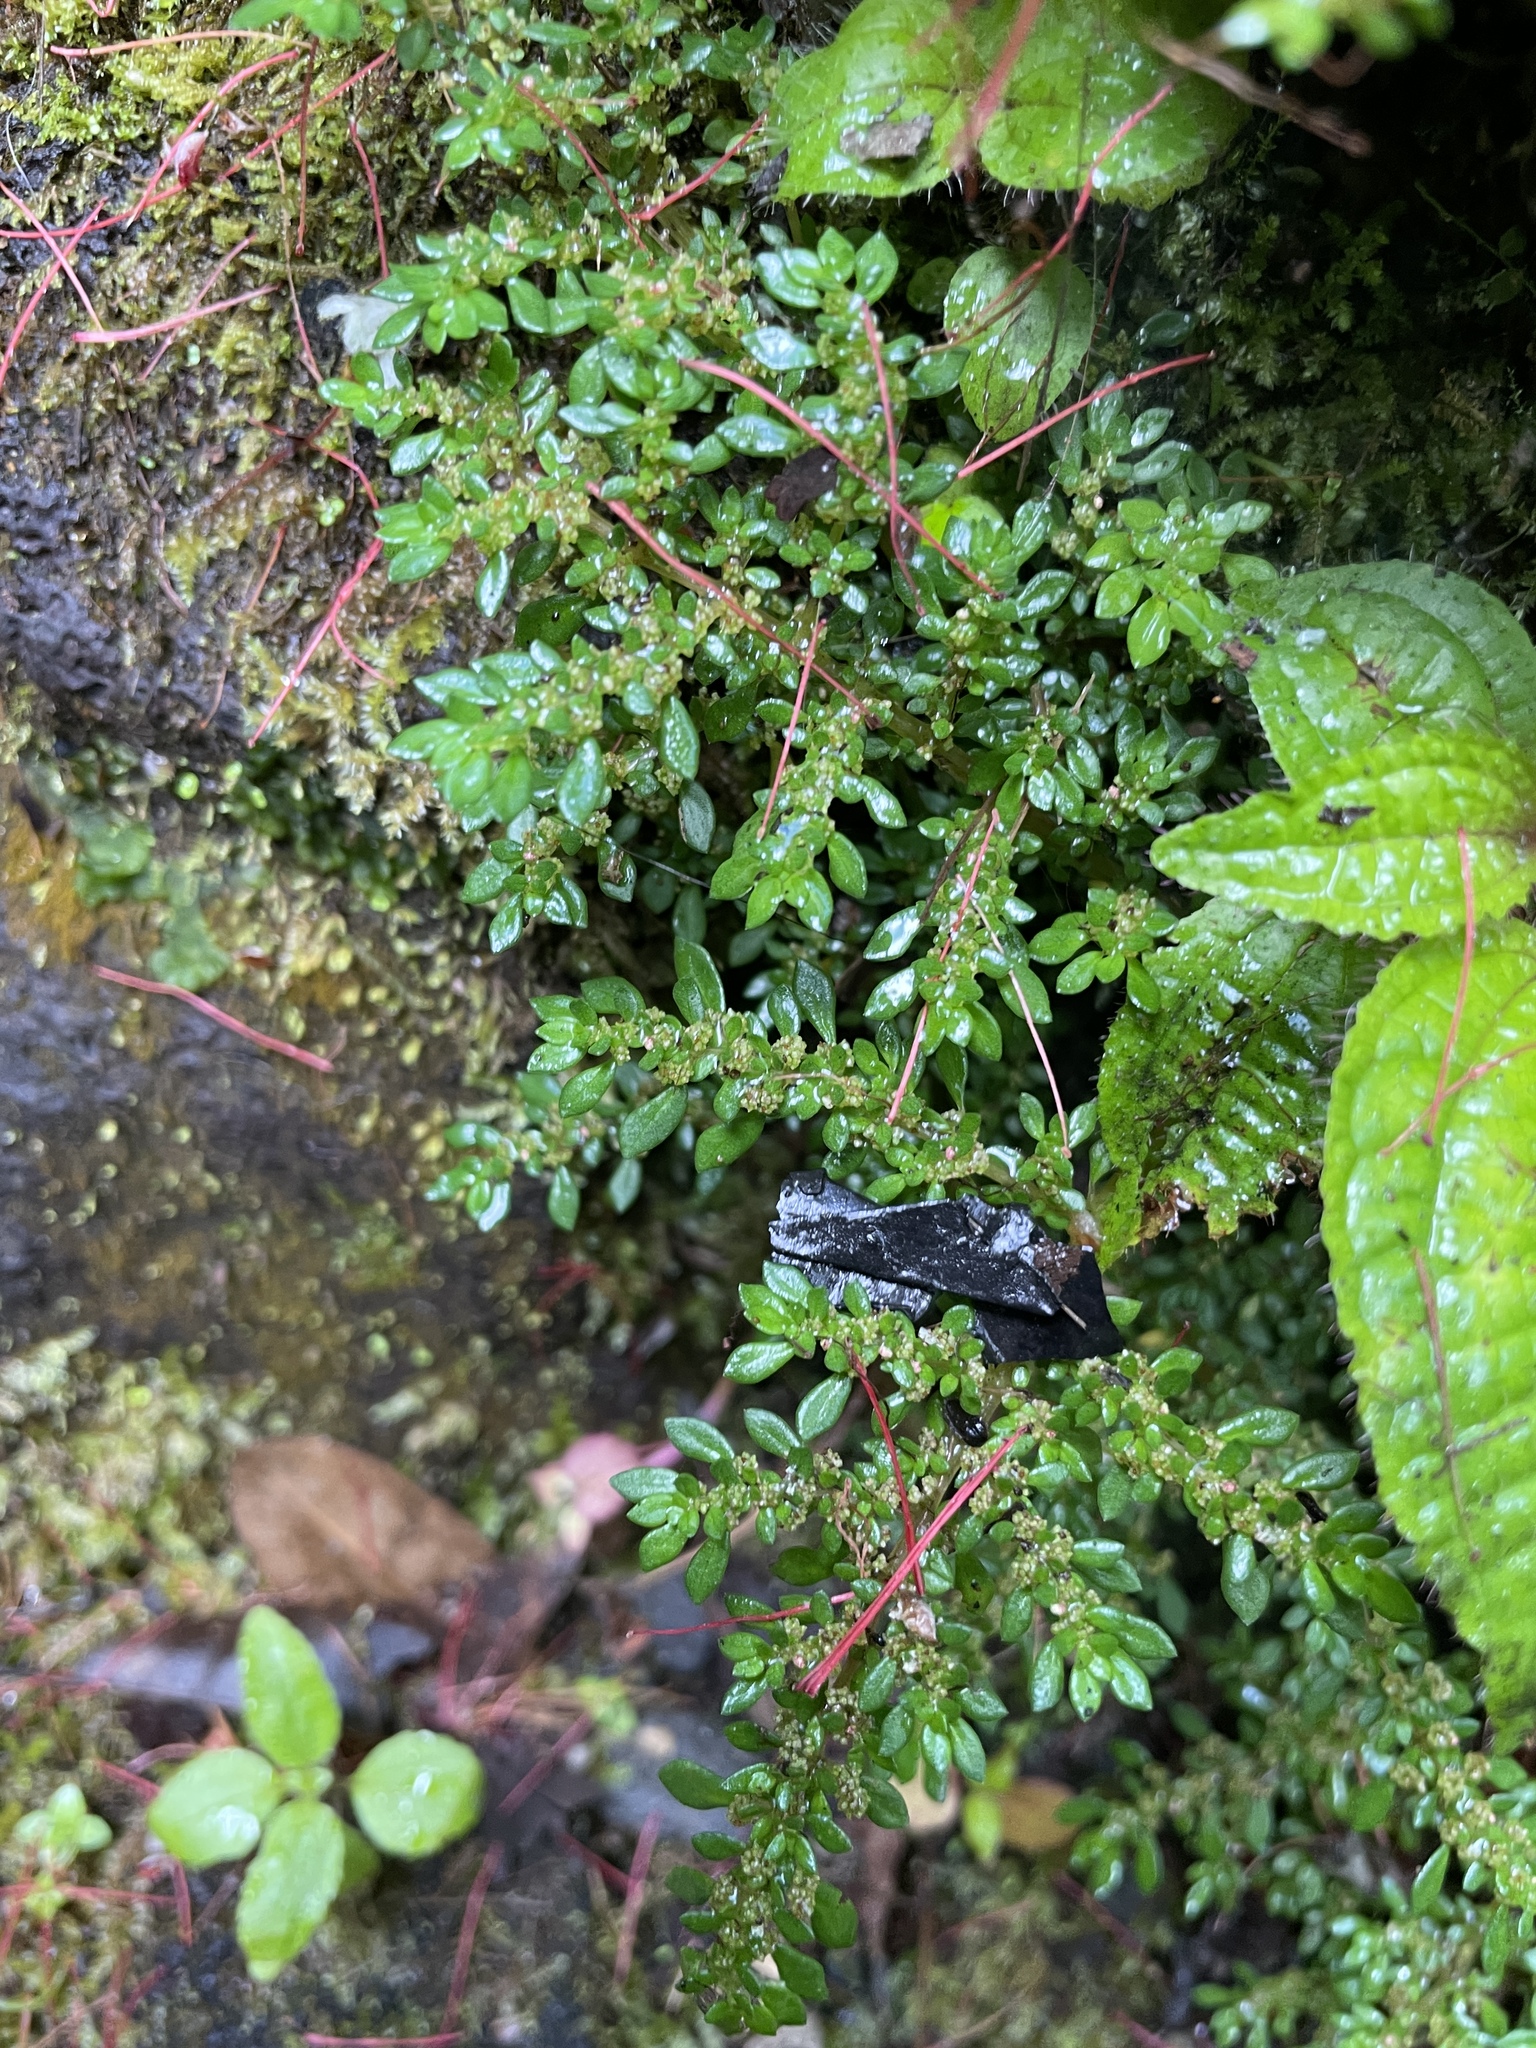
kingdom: Plantae
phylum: Tracheophyta
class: Magnoliopsida
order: Rosales
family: Urticaceae
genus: Pilea
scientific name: Pilea microphylla
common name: Artillery-plant
